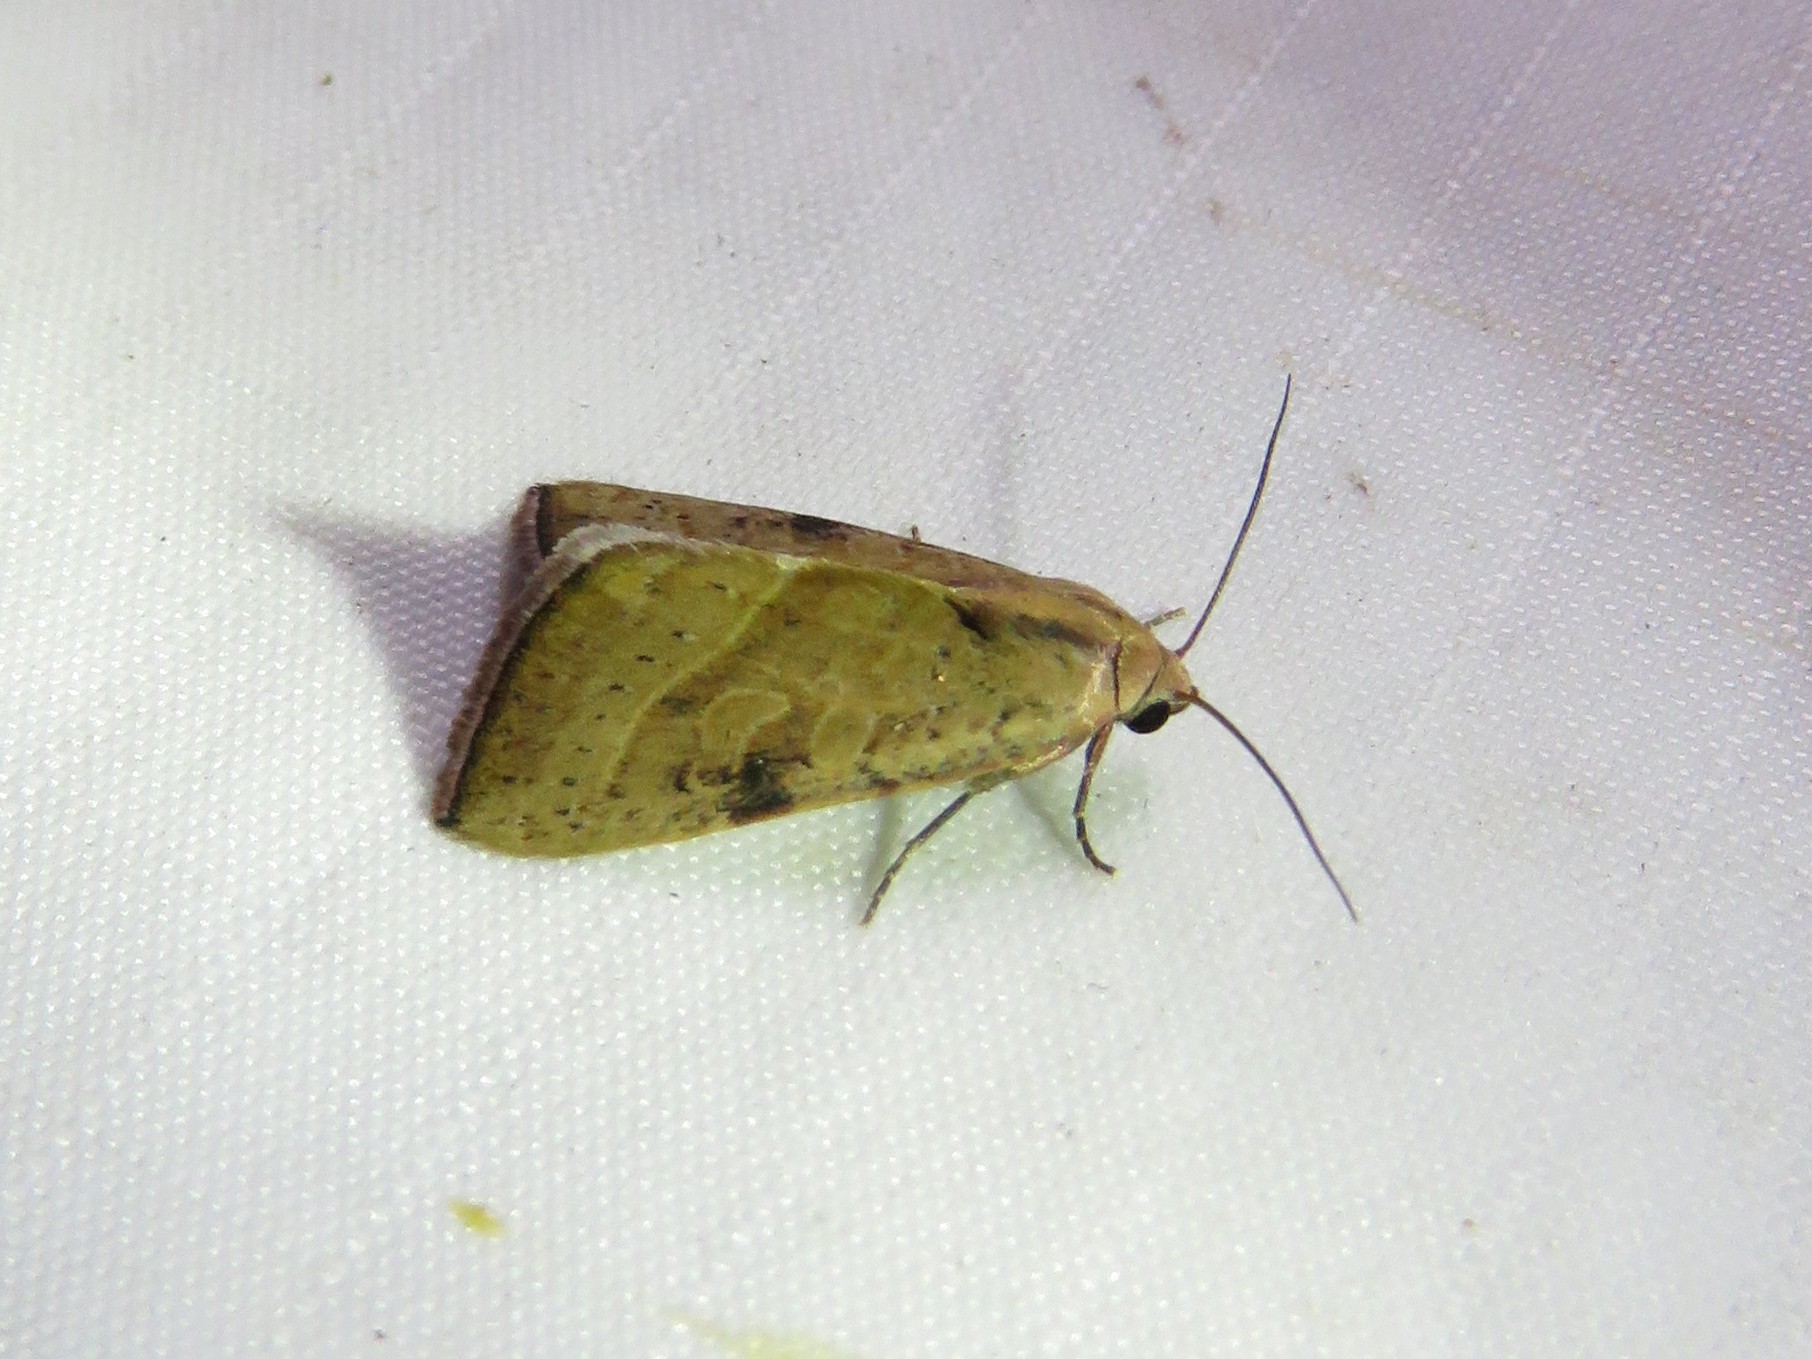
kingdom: Animalia
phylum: Arthropoda
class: Insecta
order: Lepidoptera
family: Noctuidae
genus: Galgula
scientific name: Galgula partita
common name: Wedgeling
